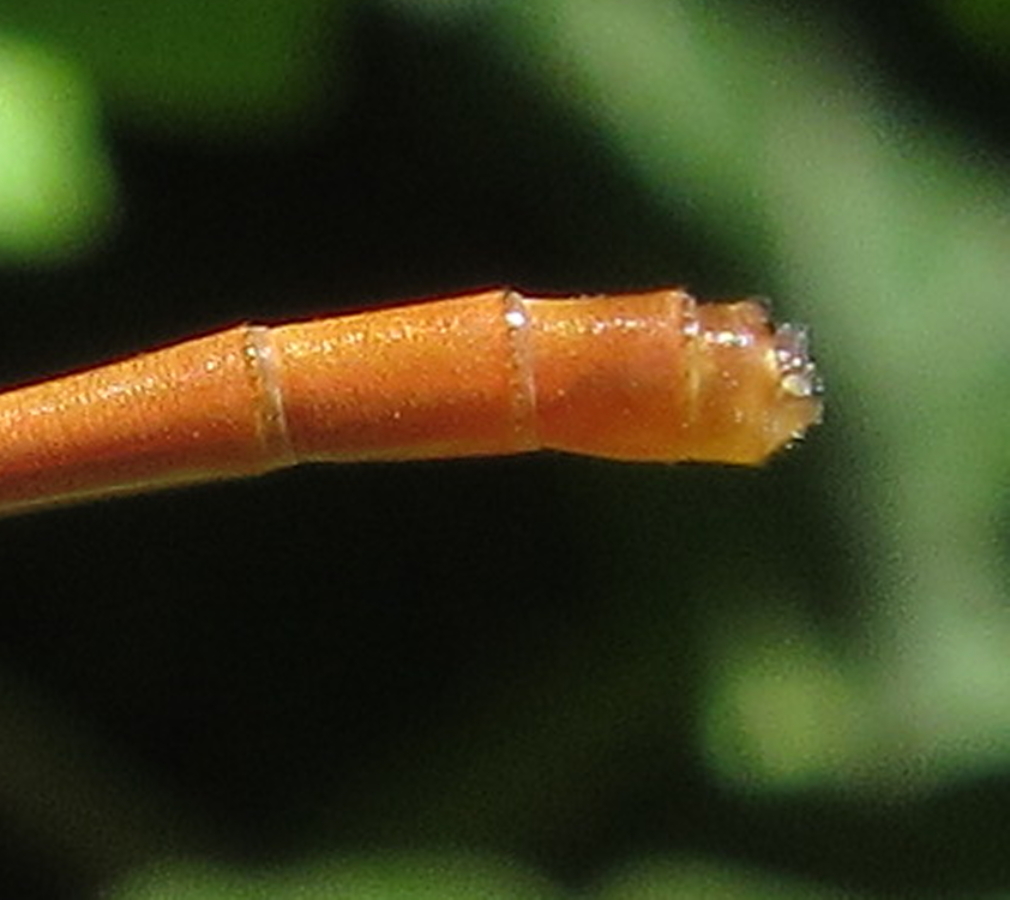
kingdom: Animalia
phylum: Arthropoda
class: Insecta
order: Odonata
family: Coenagrionidae
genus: Ceriagrion
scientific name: Ceriagrion glabrum
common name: Common pond damsel
